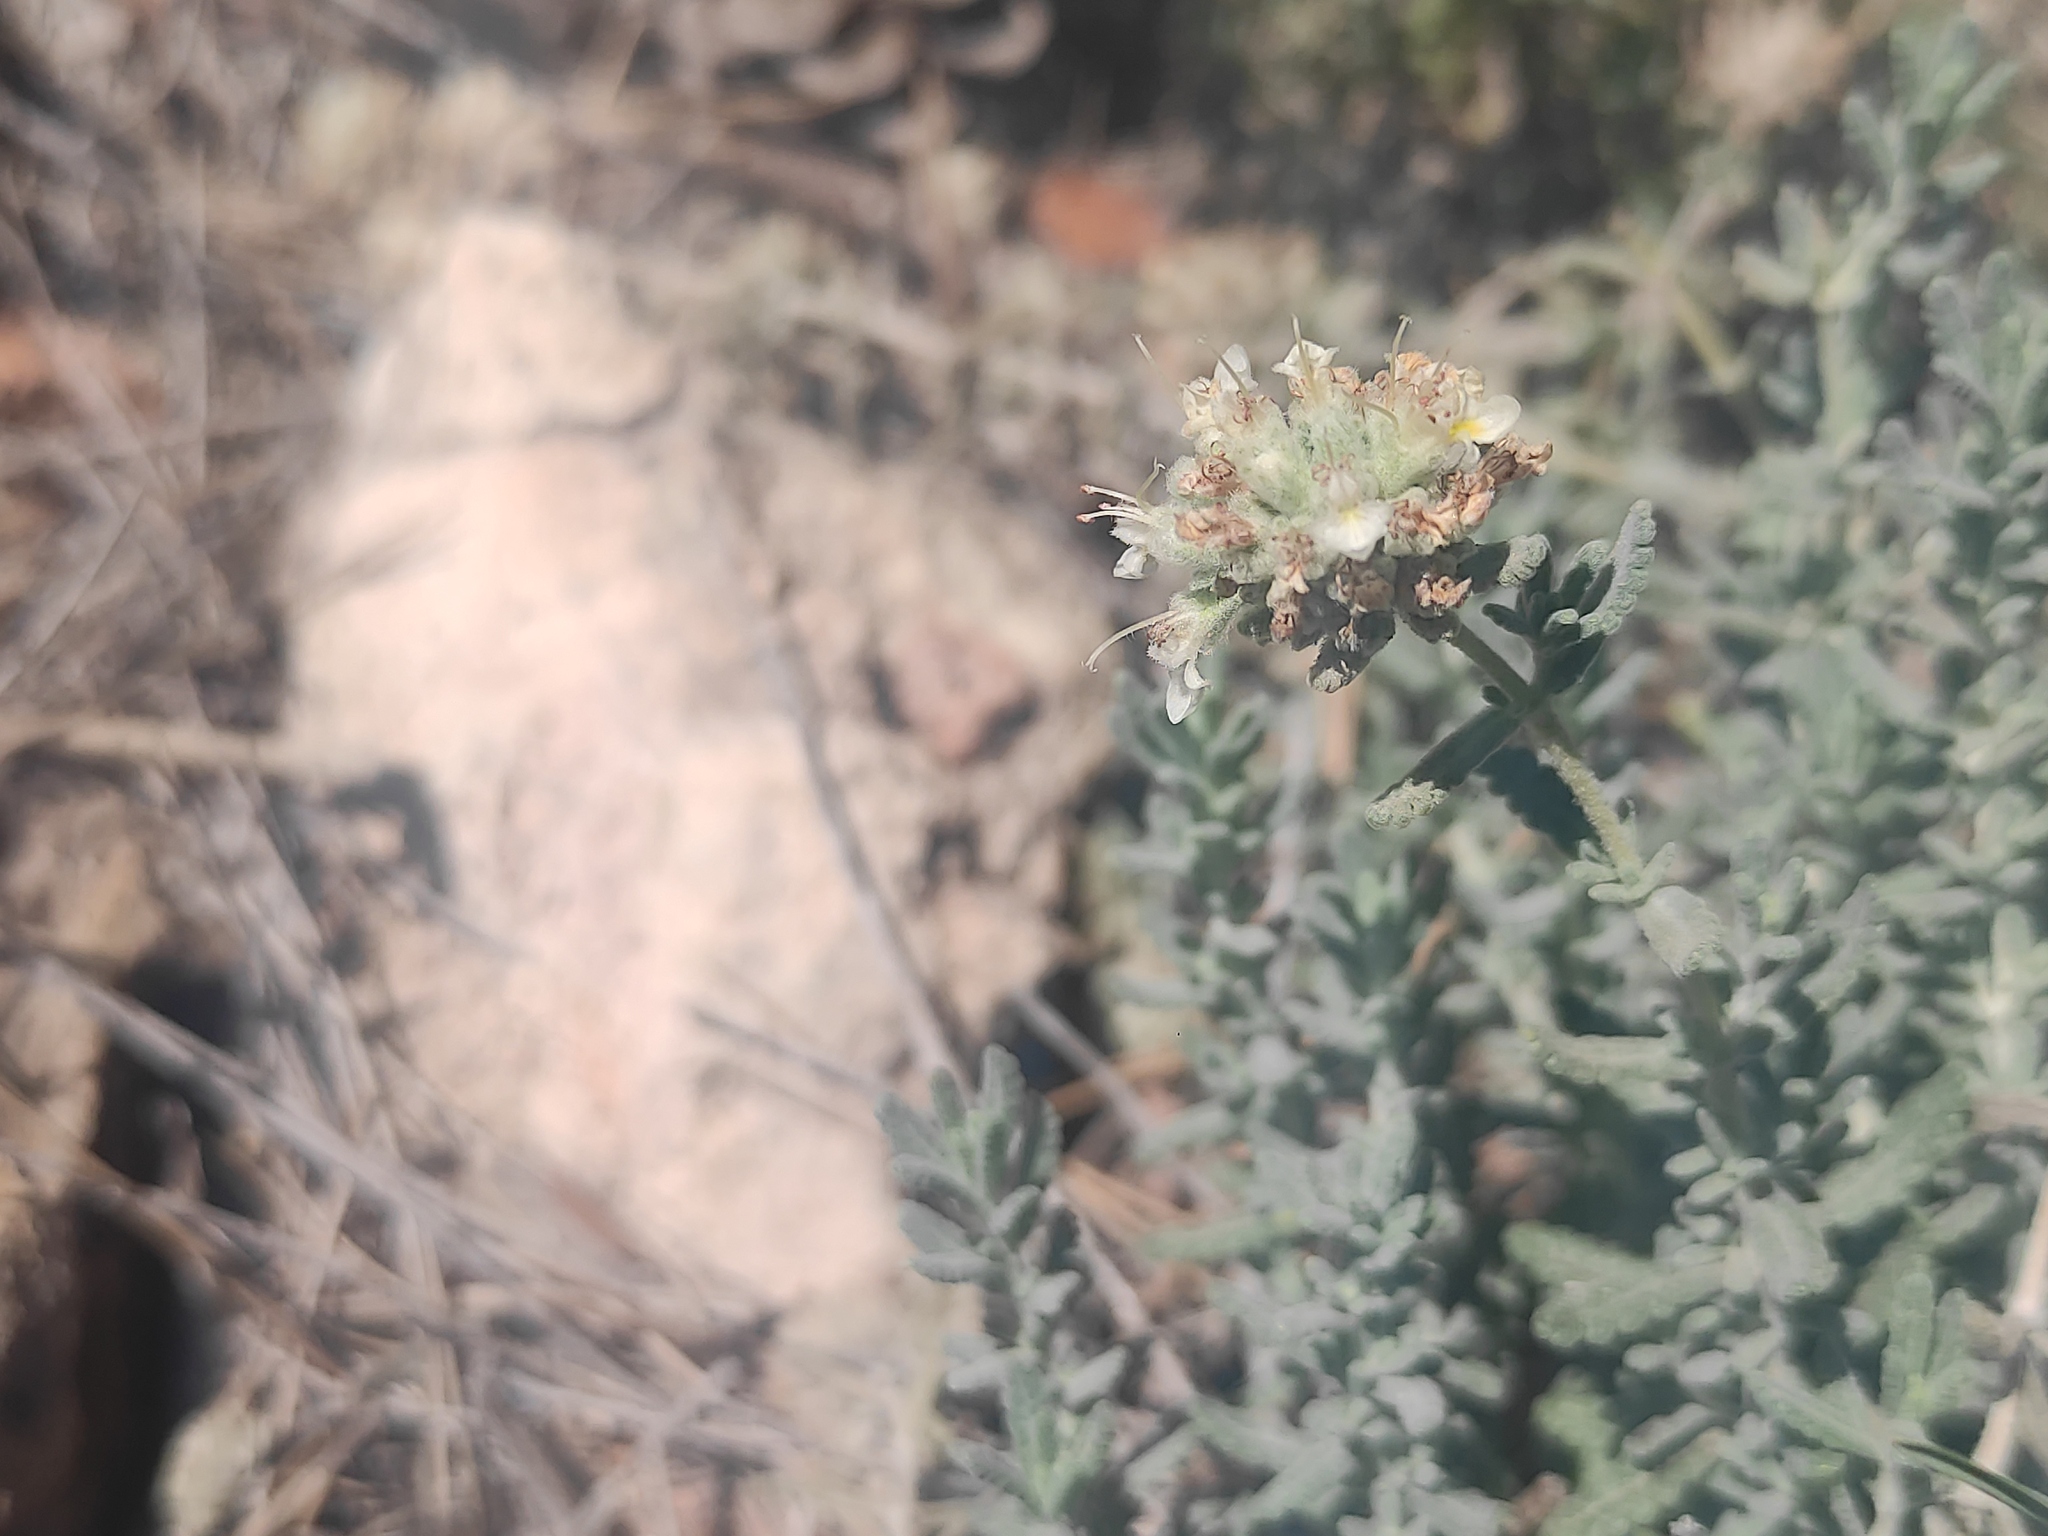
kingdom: Plantae
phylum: Tracheophyta
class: Magnoliopsida
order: Lamiales
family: Lamiaceae
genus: Teucrium
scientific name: Teucrium polium
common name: Poley
